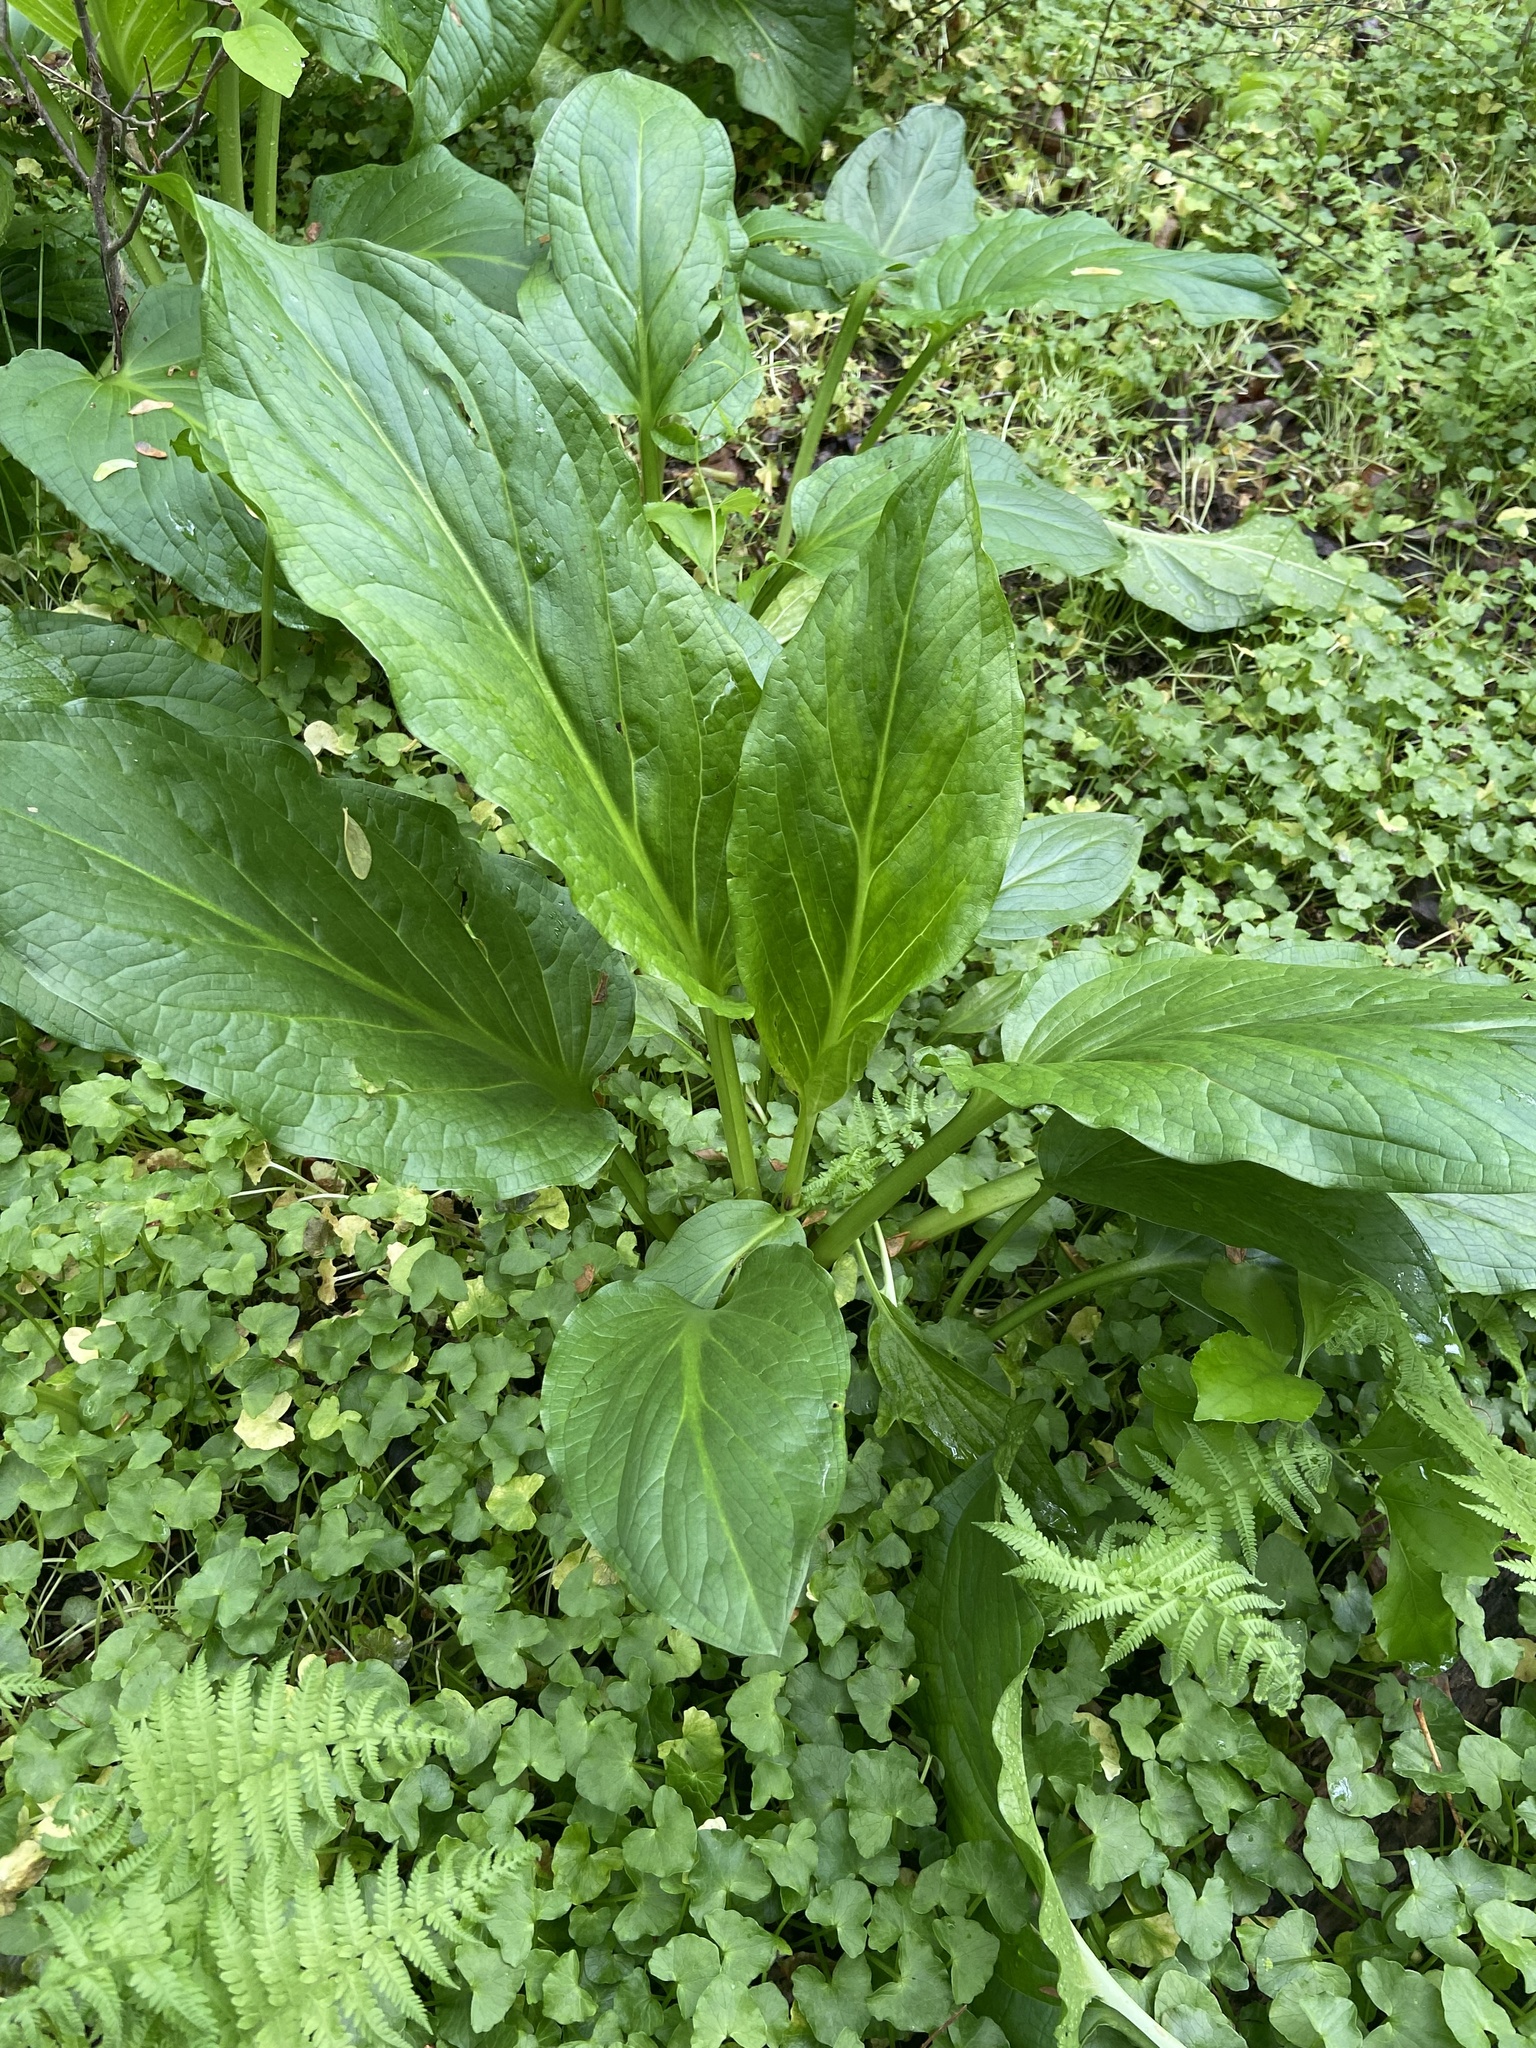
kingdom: Plantae
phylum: Tracheophyta
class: Liliopsida
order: Alismatales
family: Araceae
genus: Symplocarpus
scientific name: Symplocarpus foetidus
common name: Eastern skunk cabbage
